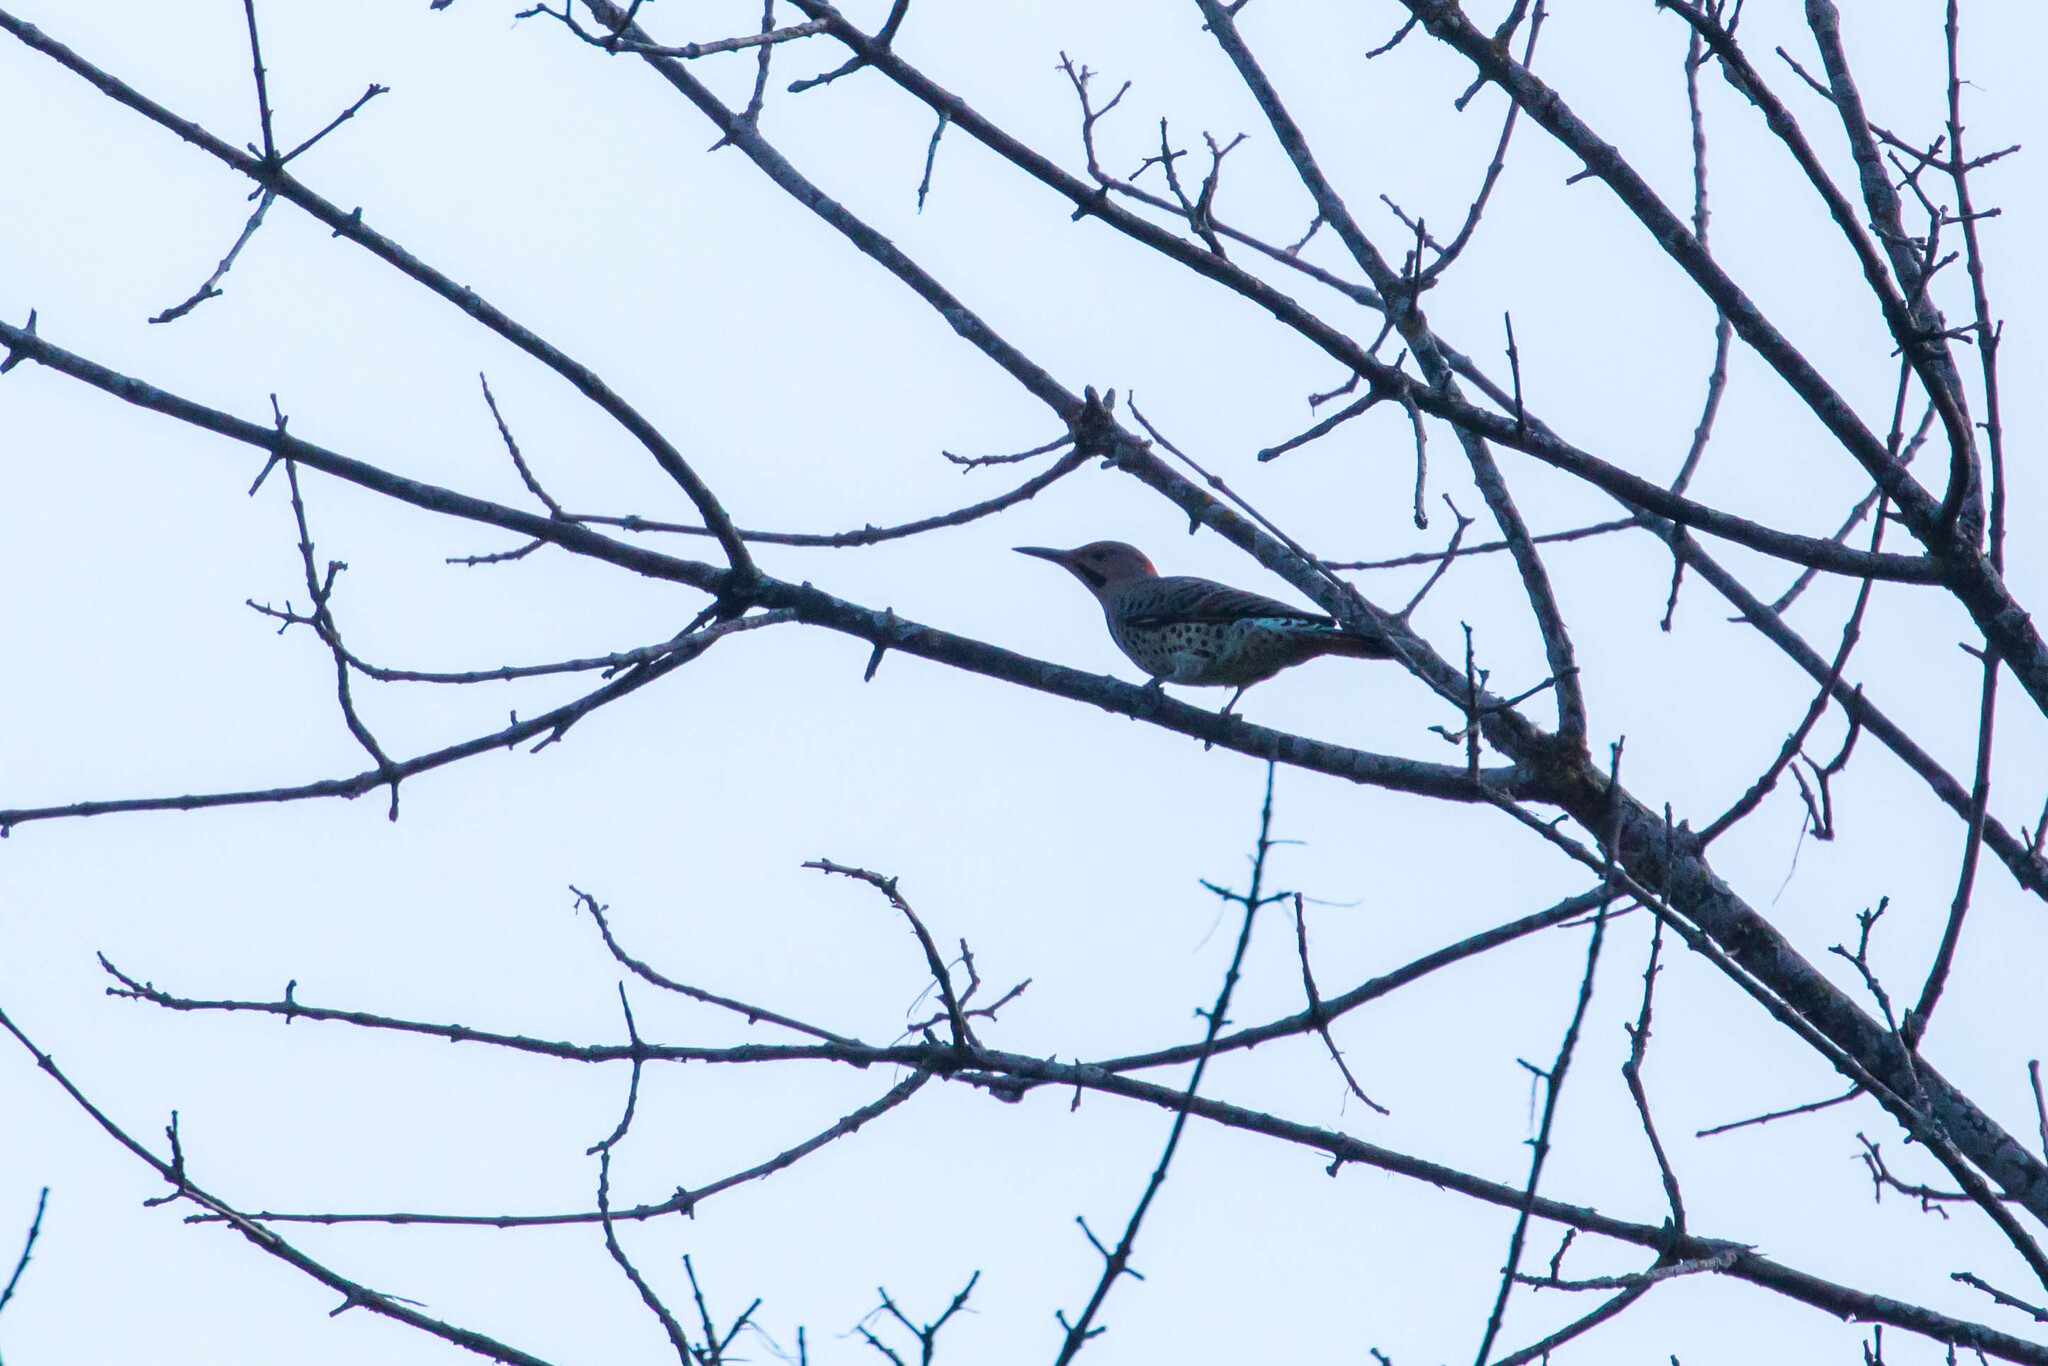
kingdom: Animalia
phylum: Chordata
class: Aves
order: Piciformes
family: Picidae
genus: Colaptes
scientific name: Colaptes auratus
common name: Northern flicker
